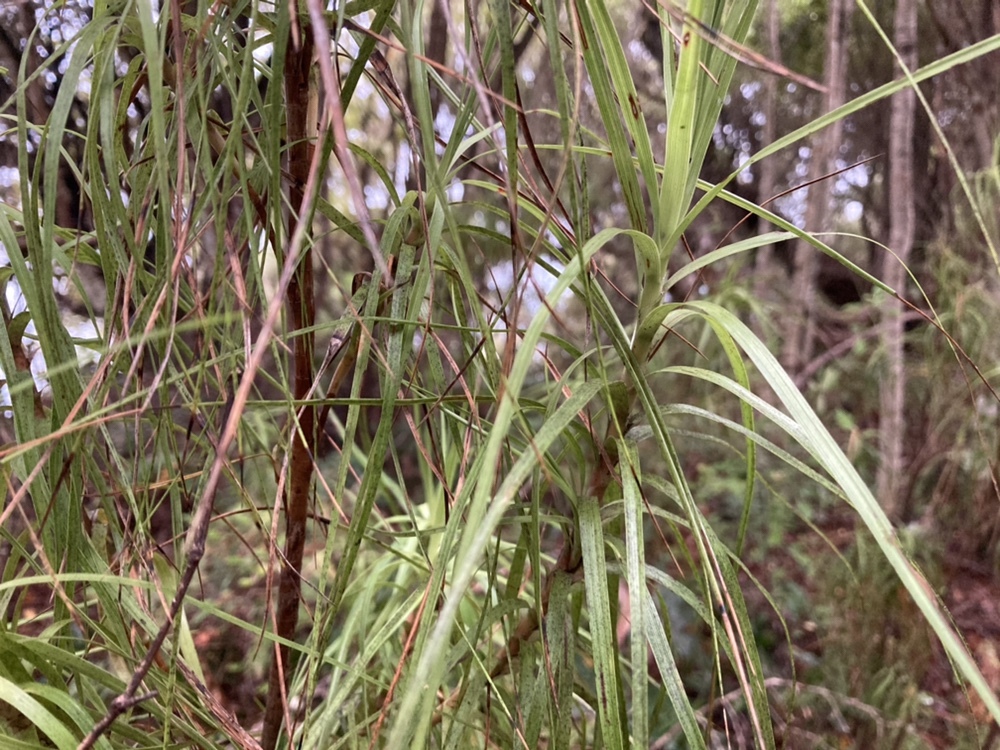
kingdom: Plantae
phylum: Tracheophyta
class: Magnoliopsida
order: Ericales
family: Ericaceae
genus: Dracophyllum
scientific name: Dracophyllum longifolium
